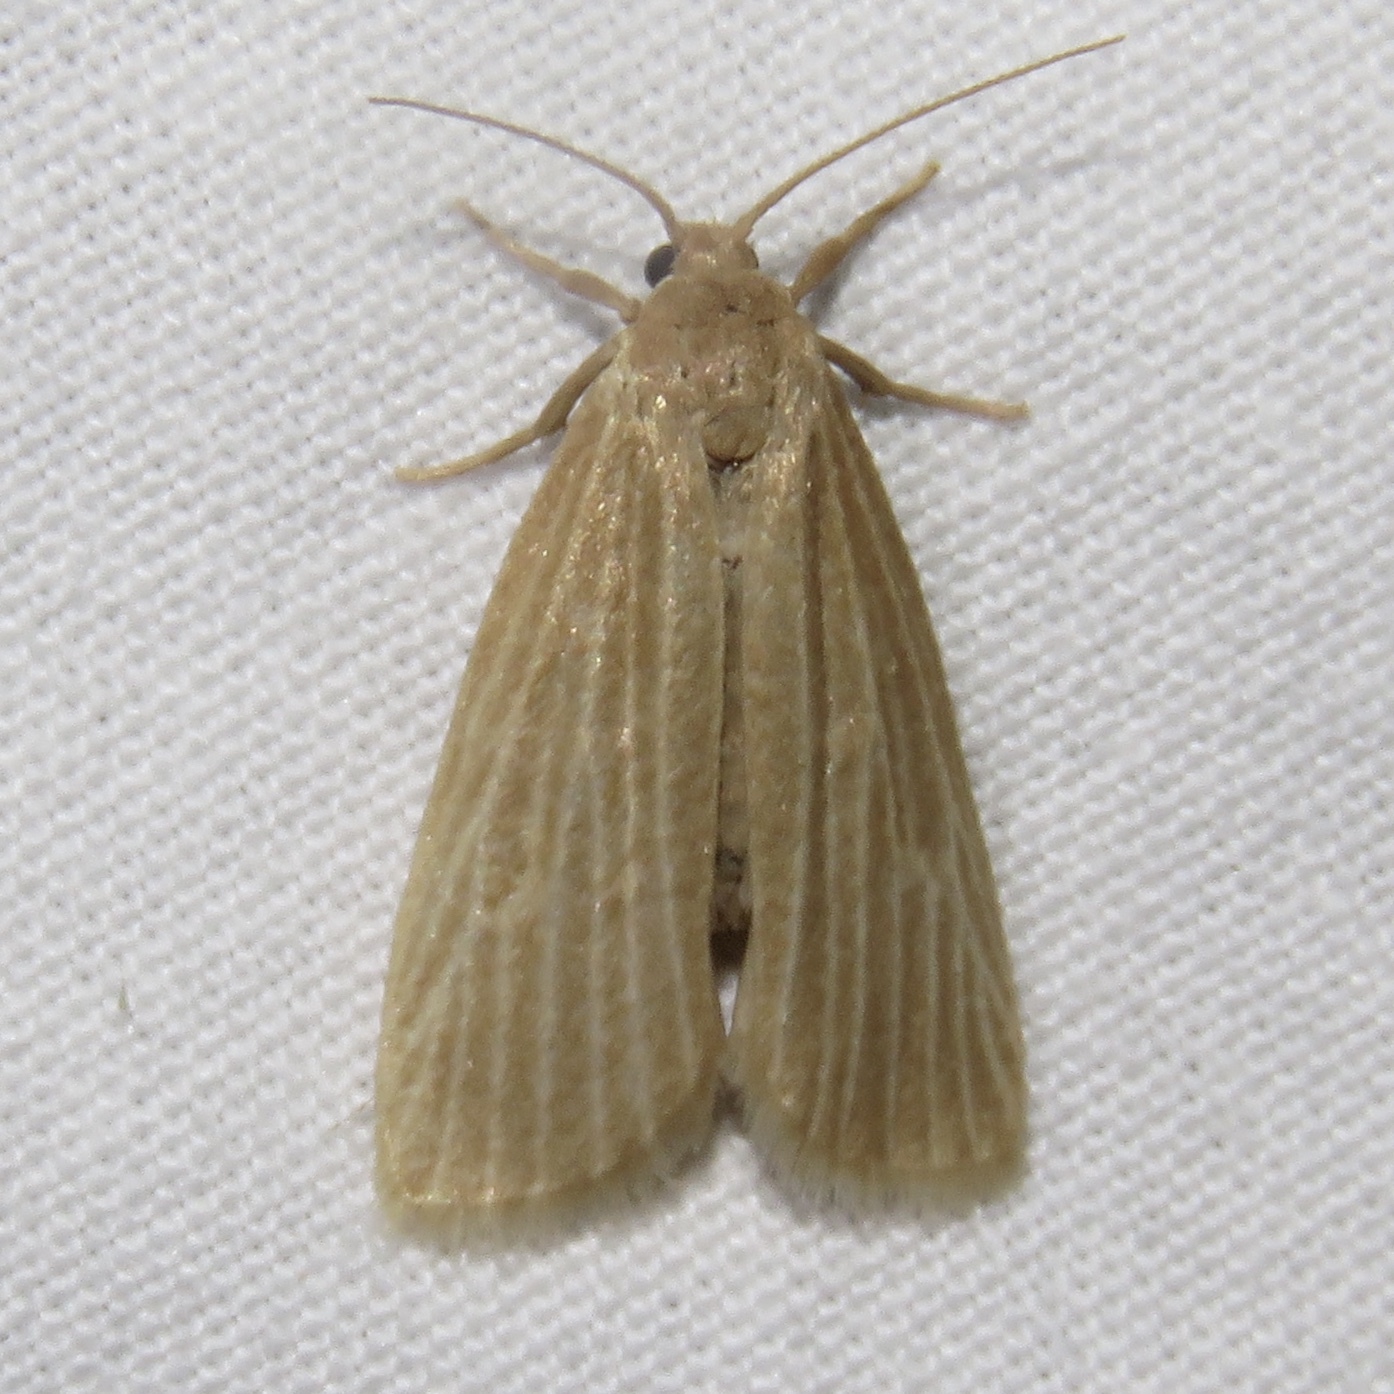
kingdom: Animalia
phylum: Arthropoda
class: Insecta
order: Lepidoptera
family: Erebidae
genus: Crambidia
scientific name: Crambidia pallida
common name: Pale lichen moth
